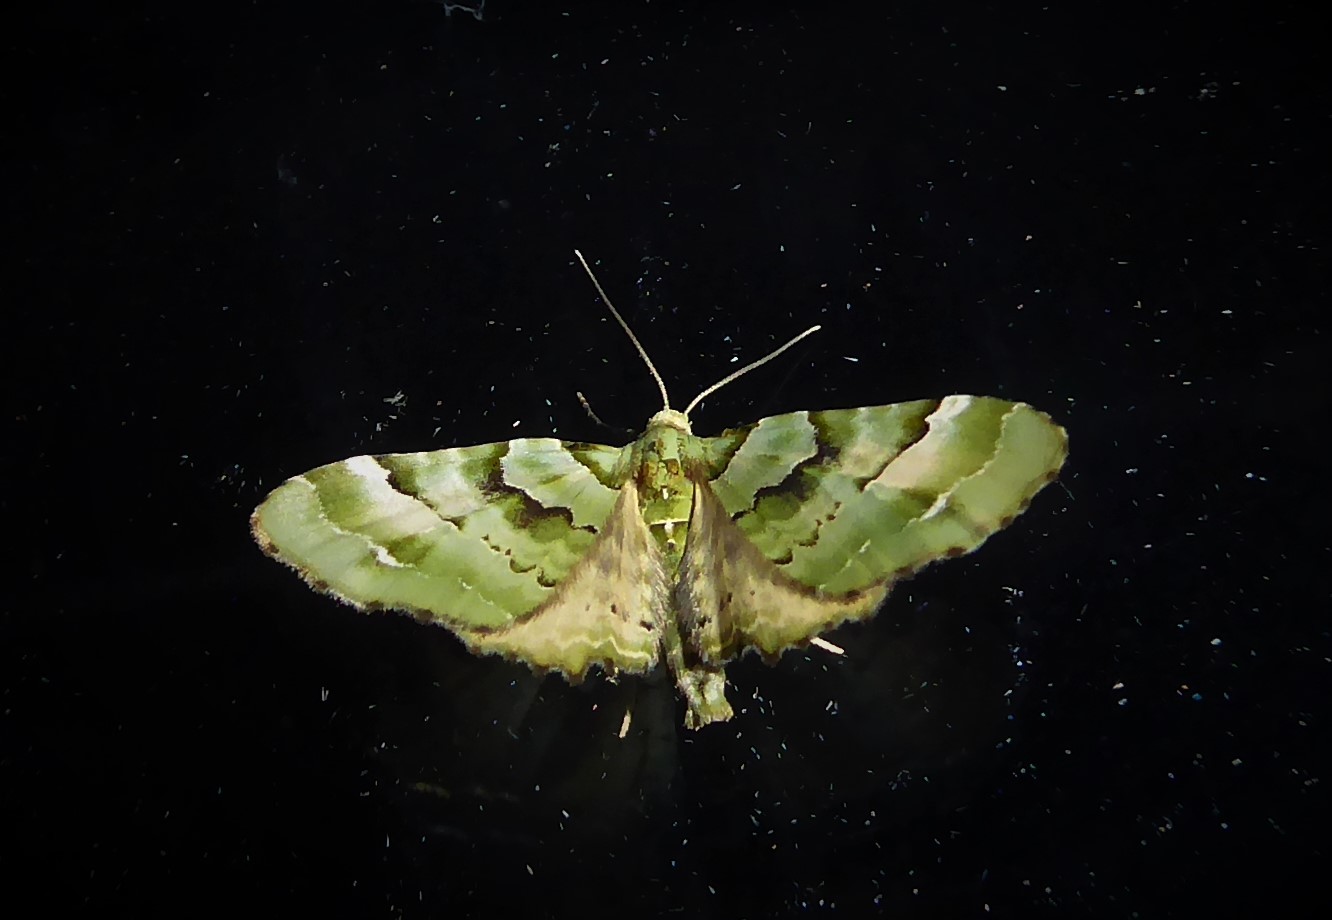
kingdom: Animalia
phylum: Arthropoda
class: Insecta
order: Lepidoptera
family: Geometridae
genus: Elvia
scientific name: Elvia glaucata
